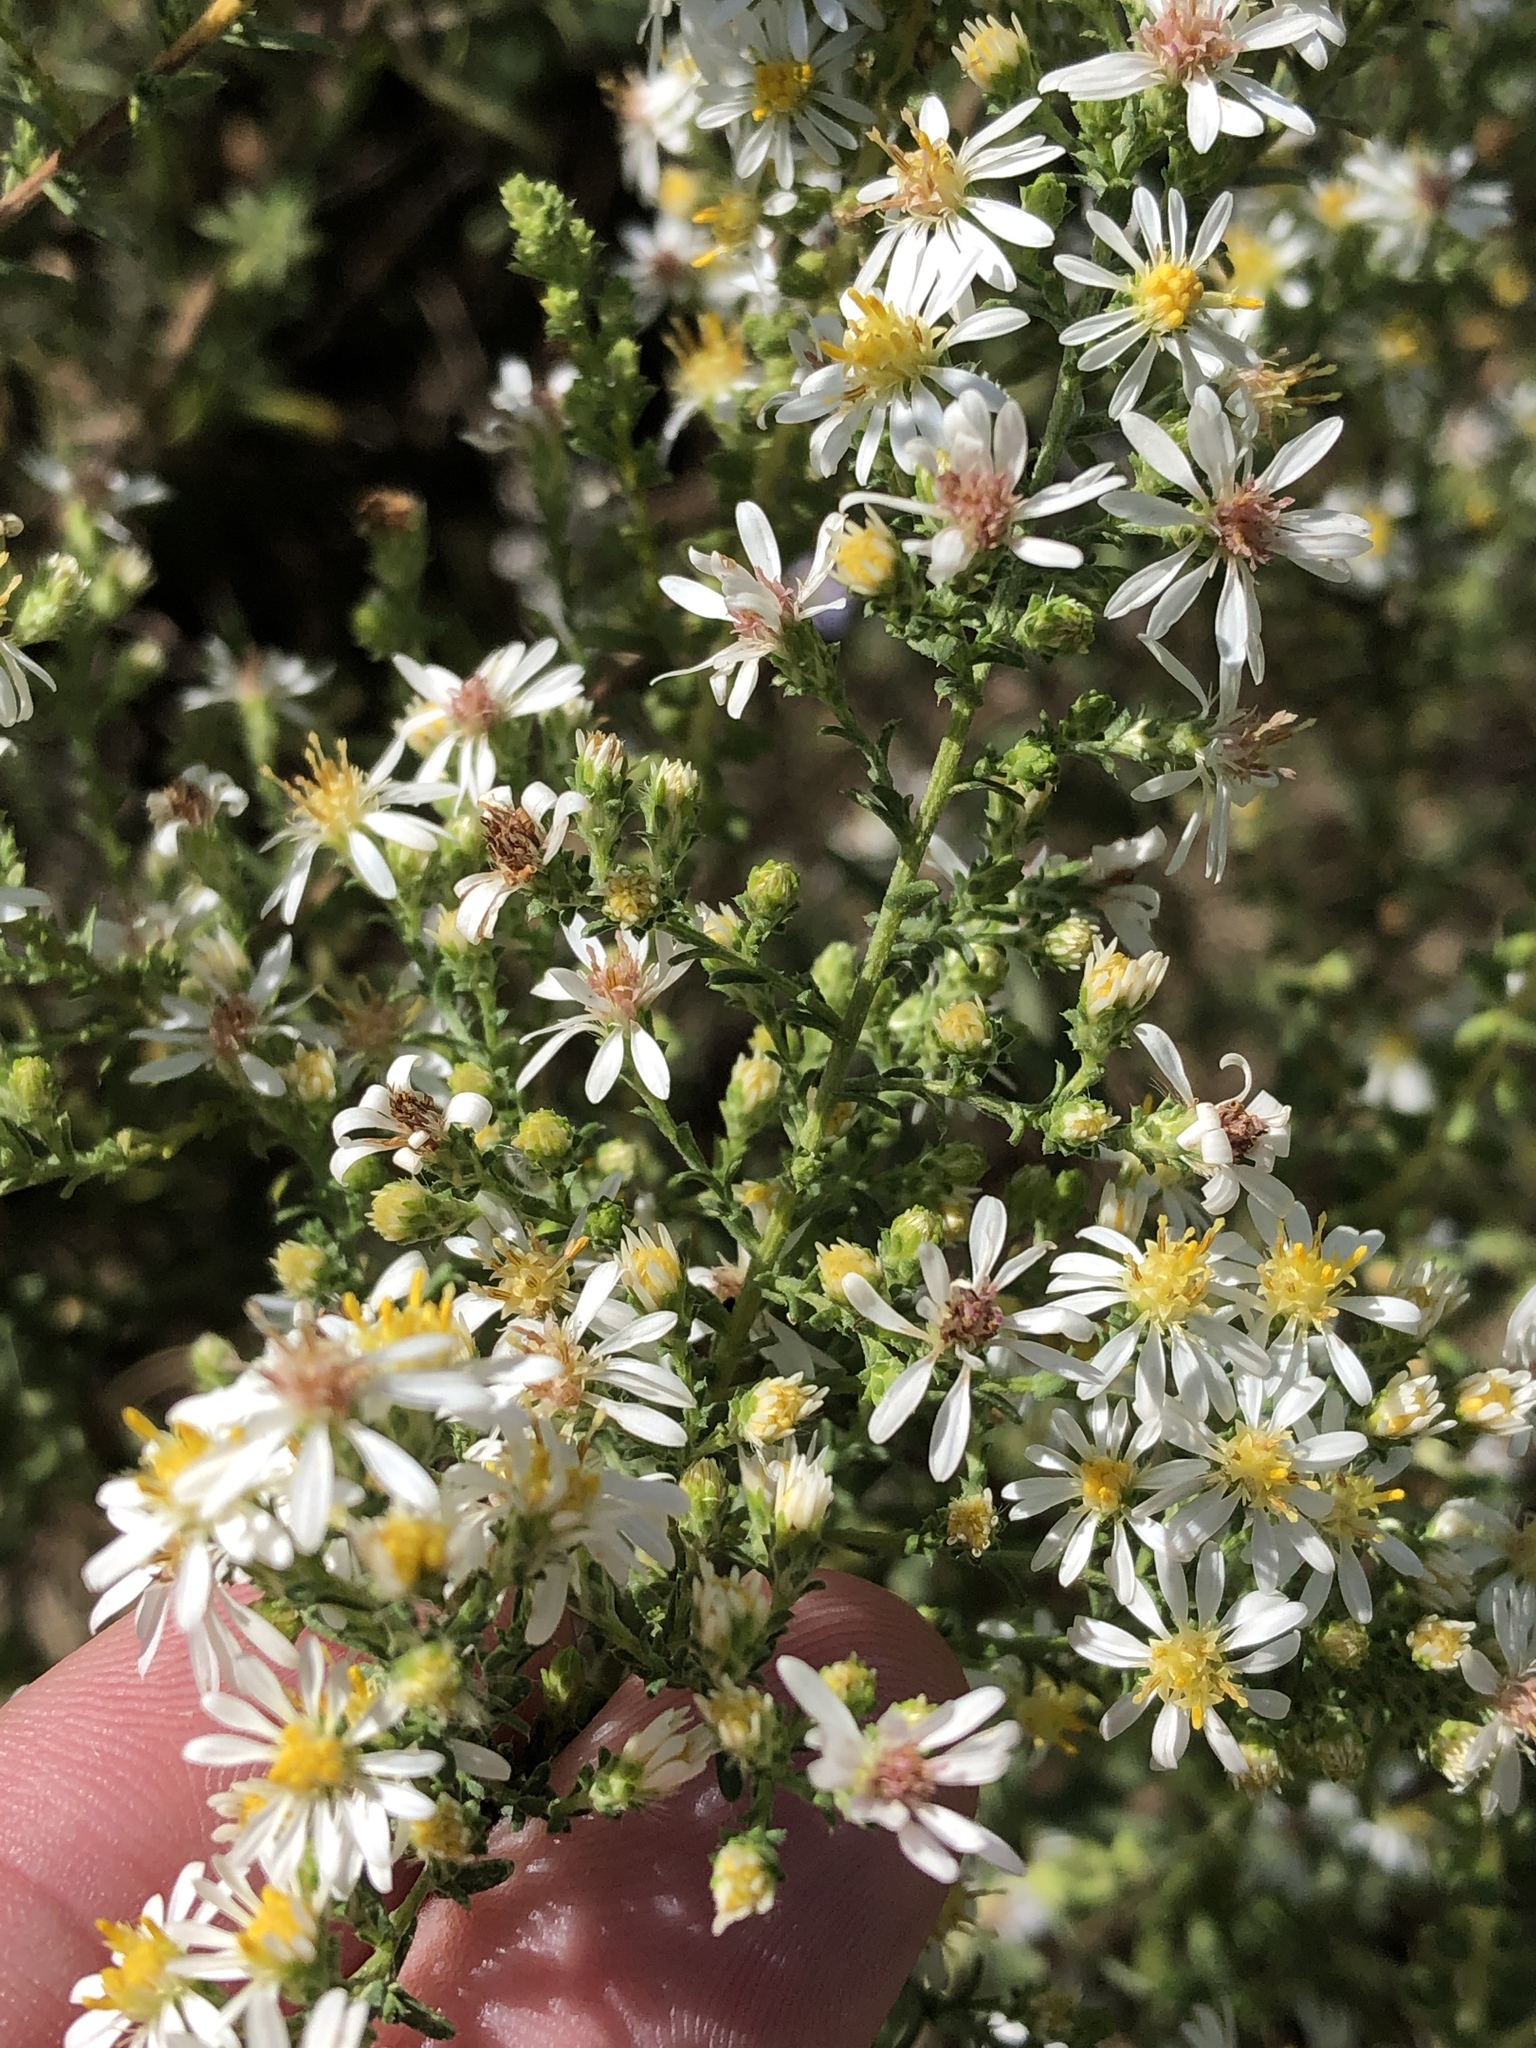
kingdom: Plantae
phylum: Tracheophyta
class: Magnoliopsida
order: Asterales
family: Asteraceae
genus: Symphyotrichum
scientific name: Symphyotrichum ericoides
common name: Heath aster
